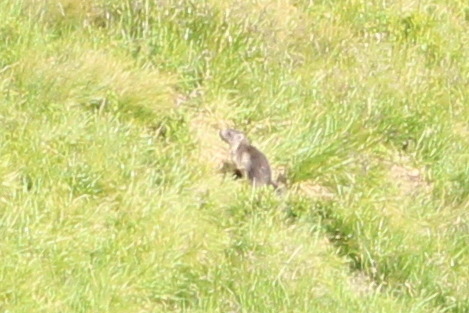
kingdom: Animalia
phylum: Chordata
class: Mammalia
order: Rodentia
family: Sciuridae
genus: Marmota
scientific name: Marmota marmota
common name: Alpine marmot
